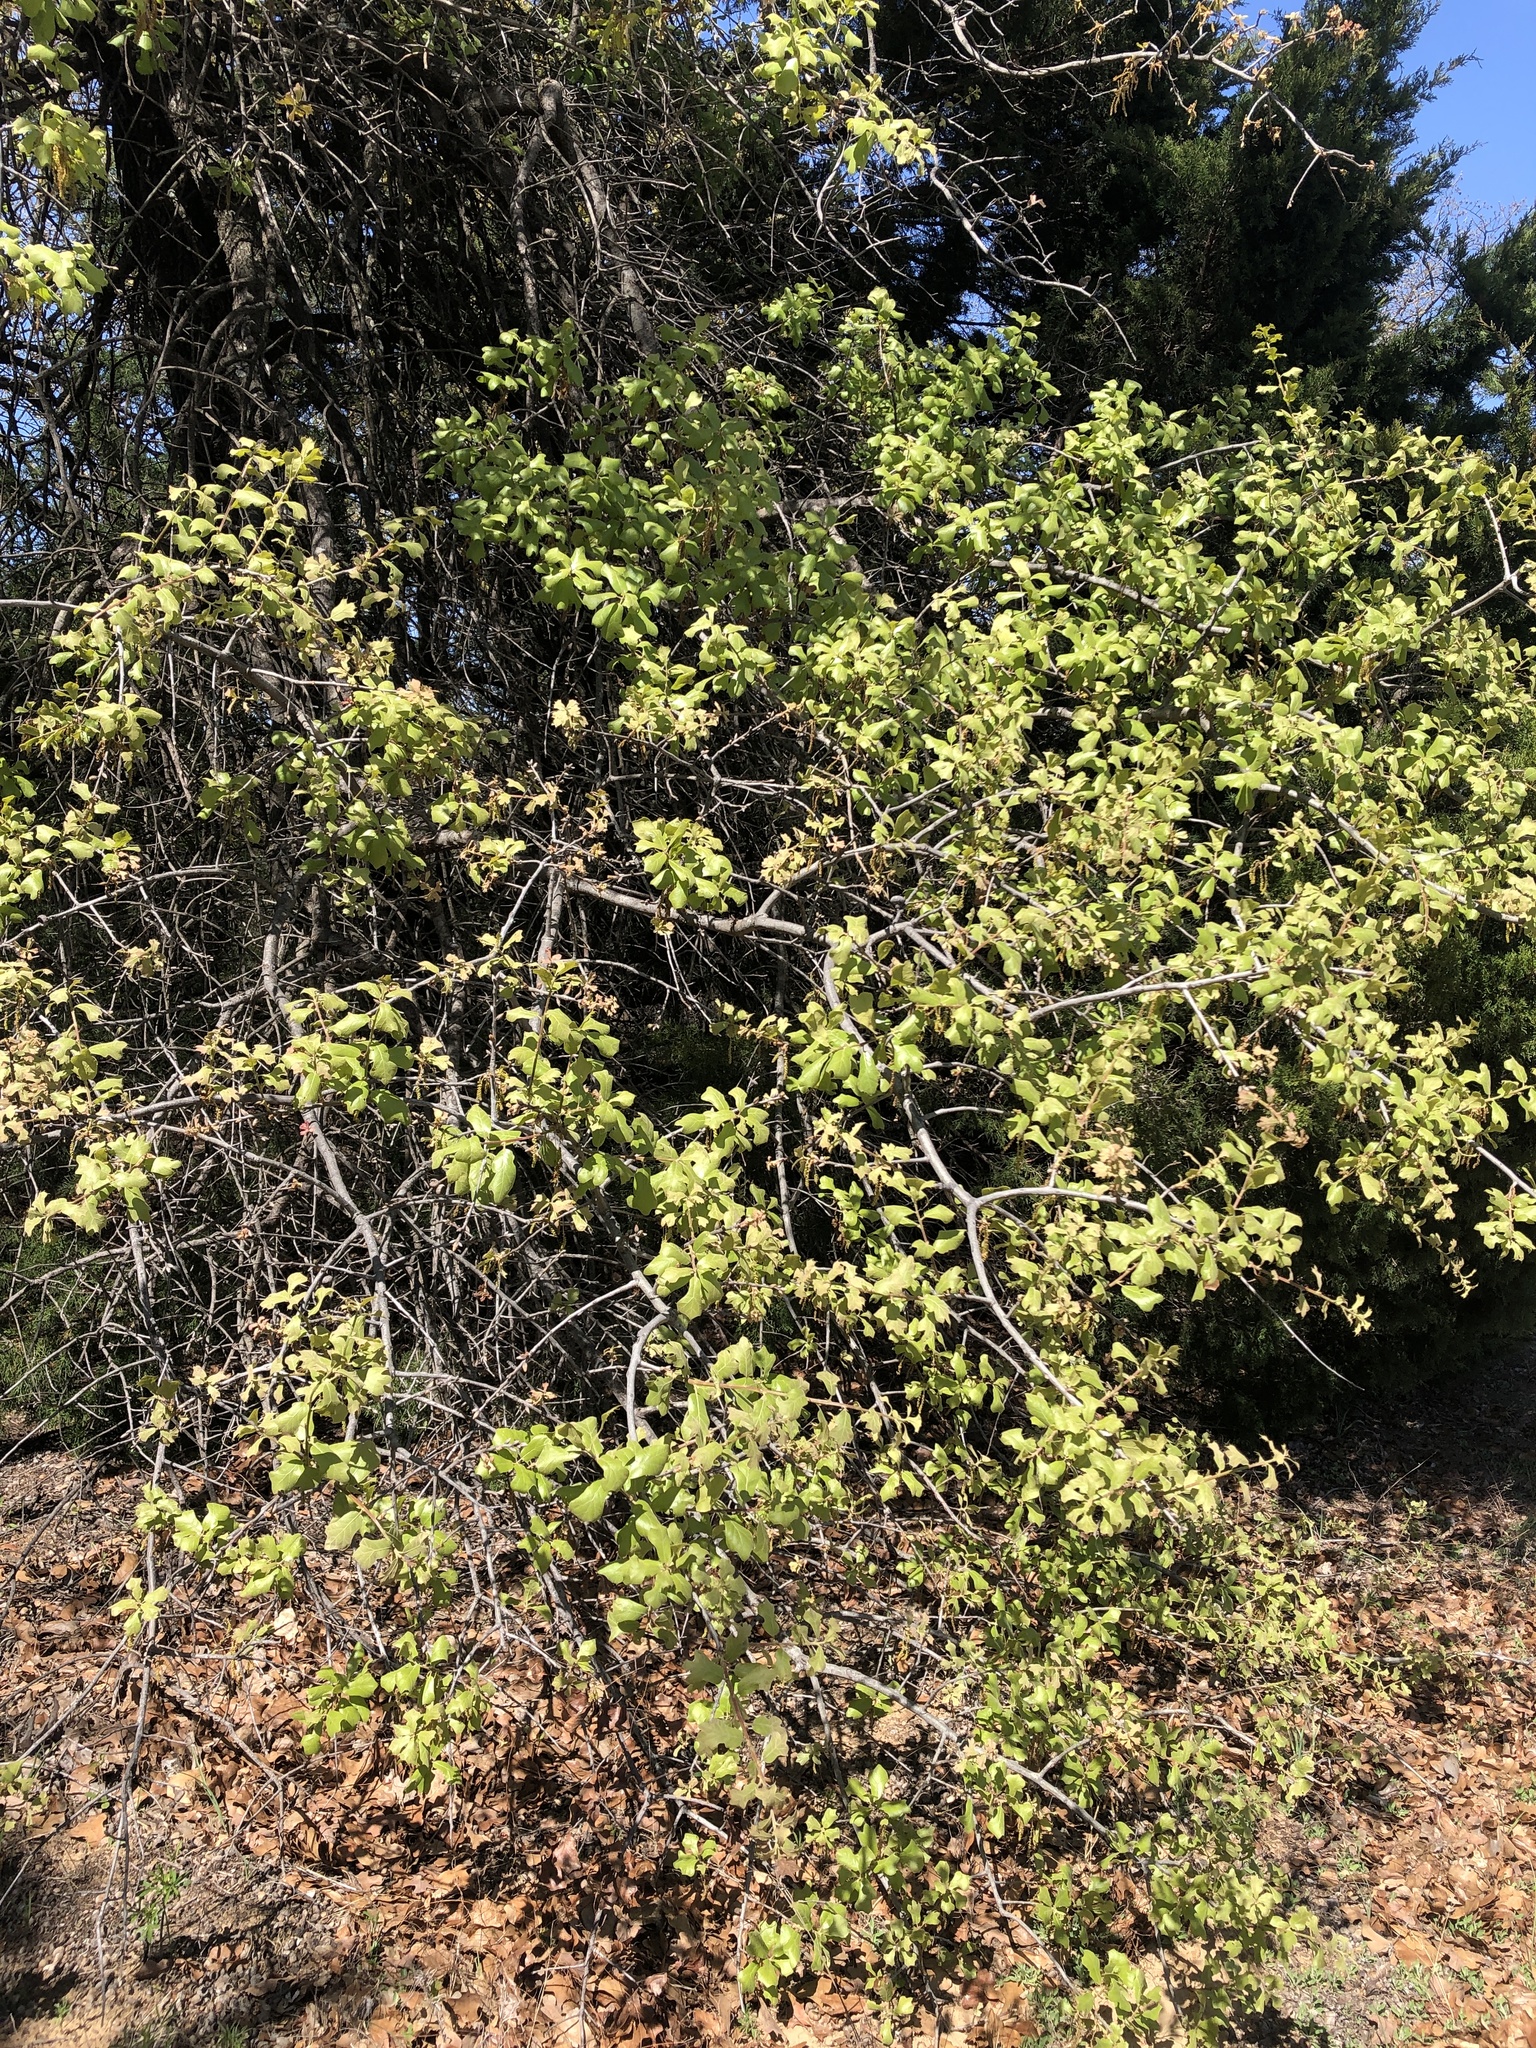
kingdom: Plantae
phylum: Tracheophyta
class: Magnoliopsida
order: Fagales
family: Fagaceae
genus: Quercus
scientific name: Quercus marilandica
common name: Blackjack oak
